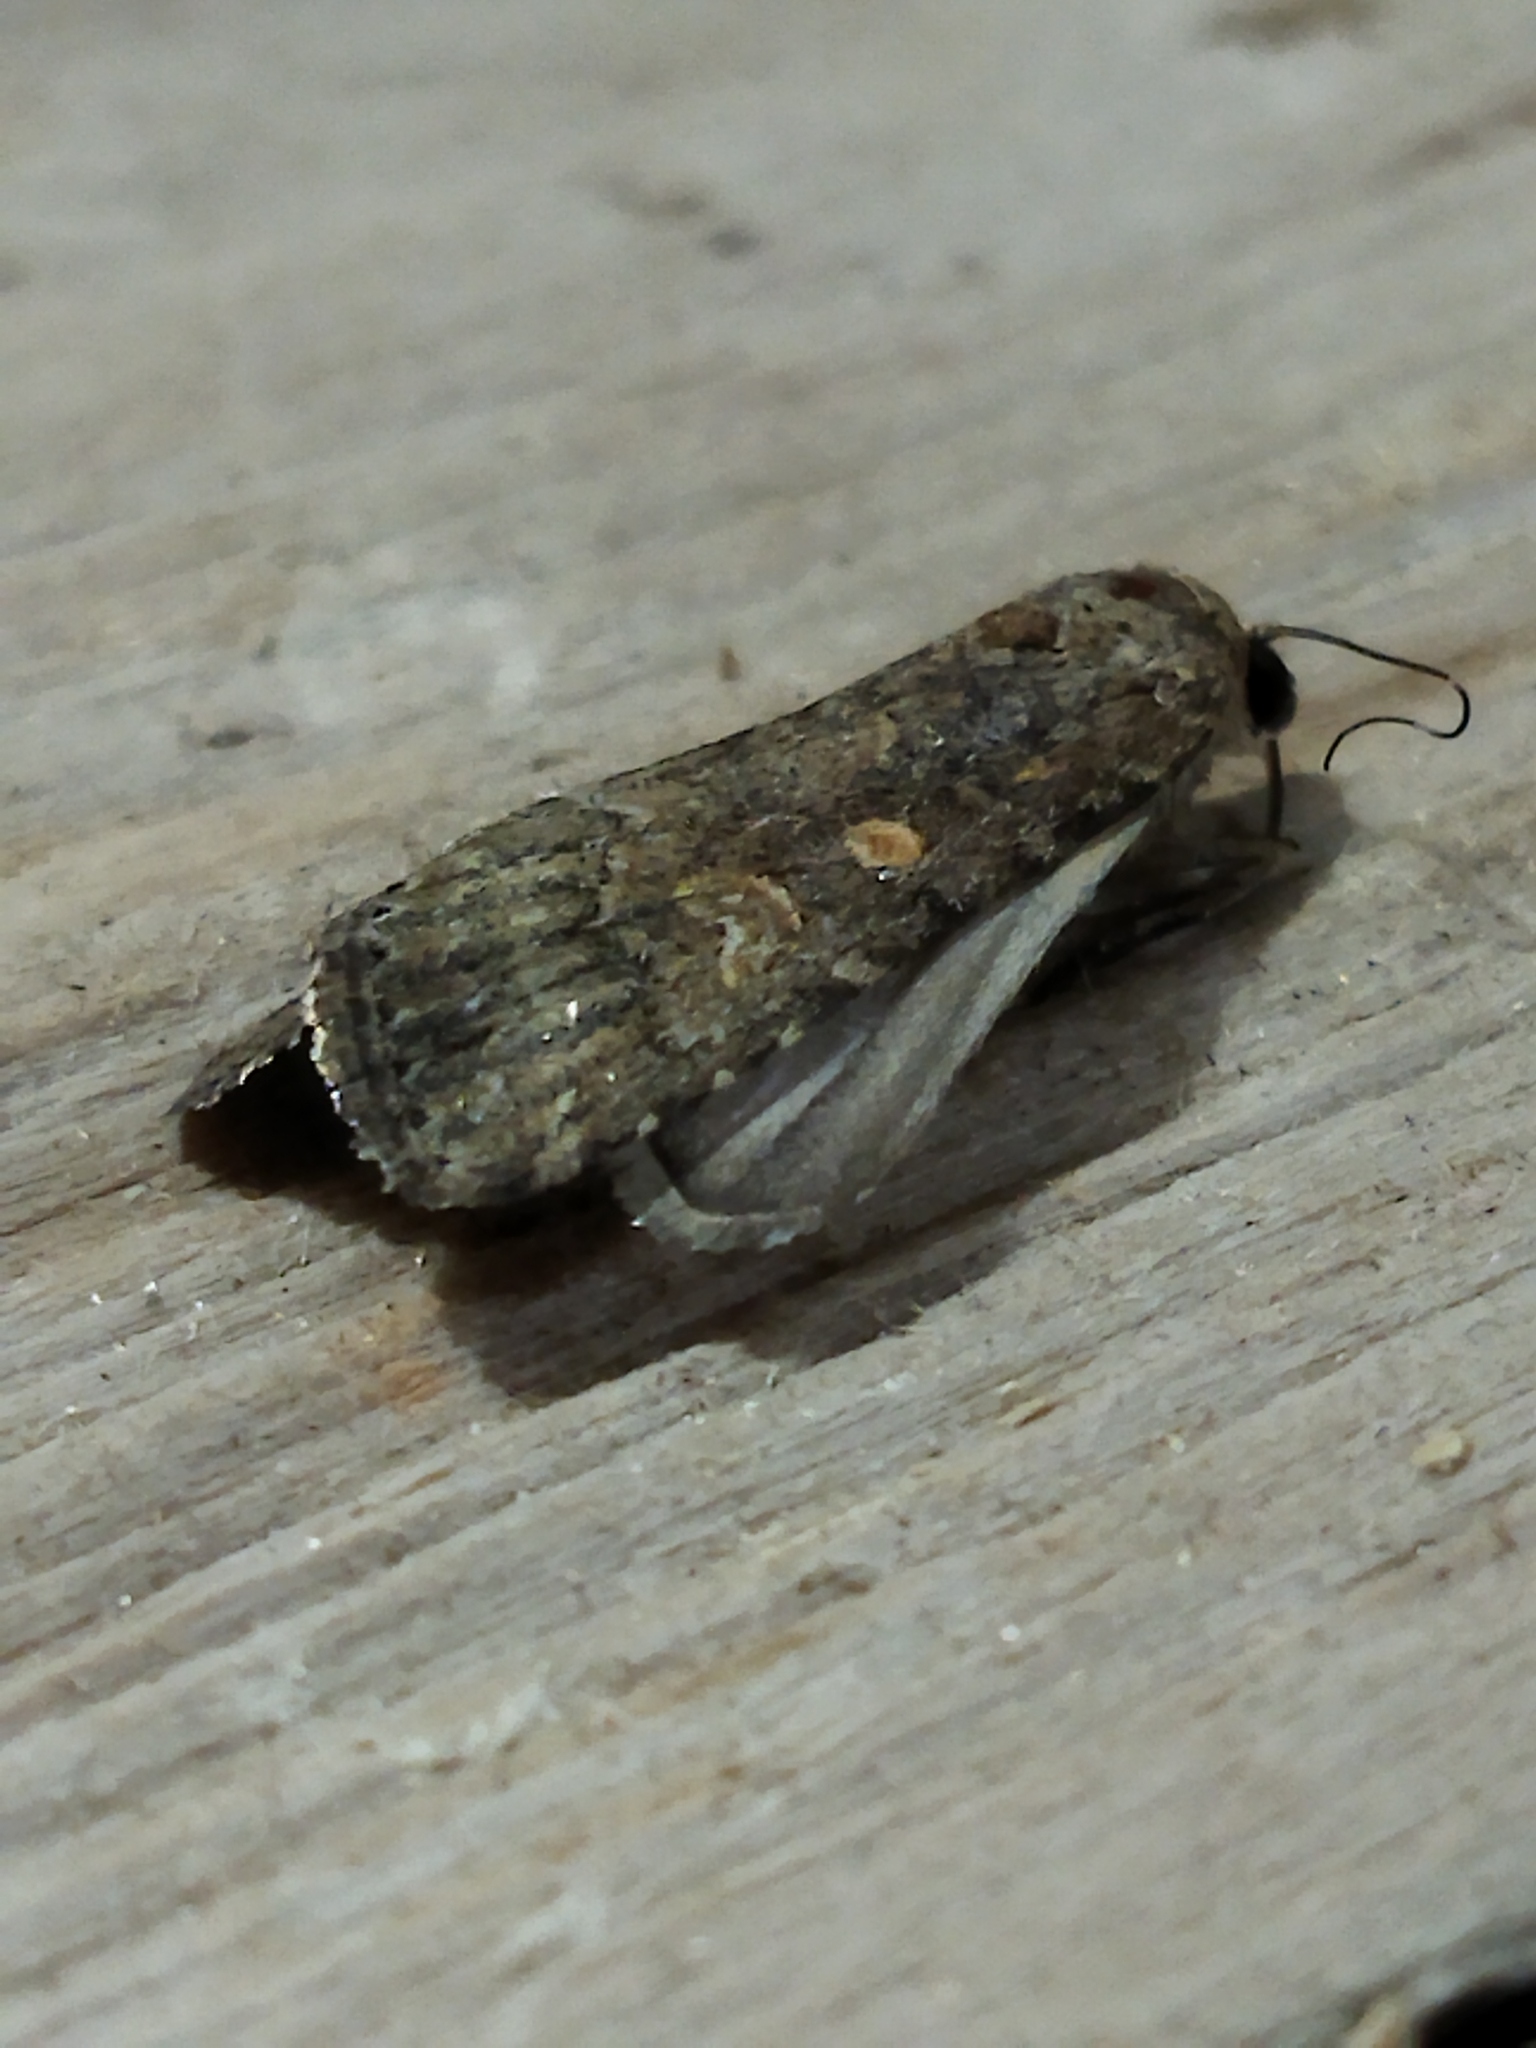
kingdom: Animalia
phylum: Arthropoda
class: Insecta
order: Lepidoptera
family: Noctuidae
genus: Spodoptera
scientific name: Spodoptera exigua
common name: Beet armyworm
